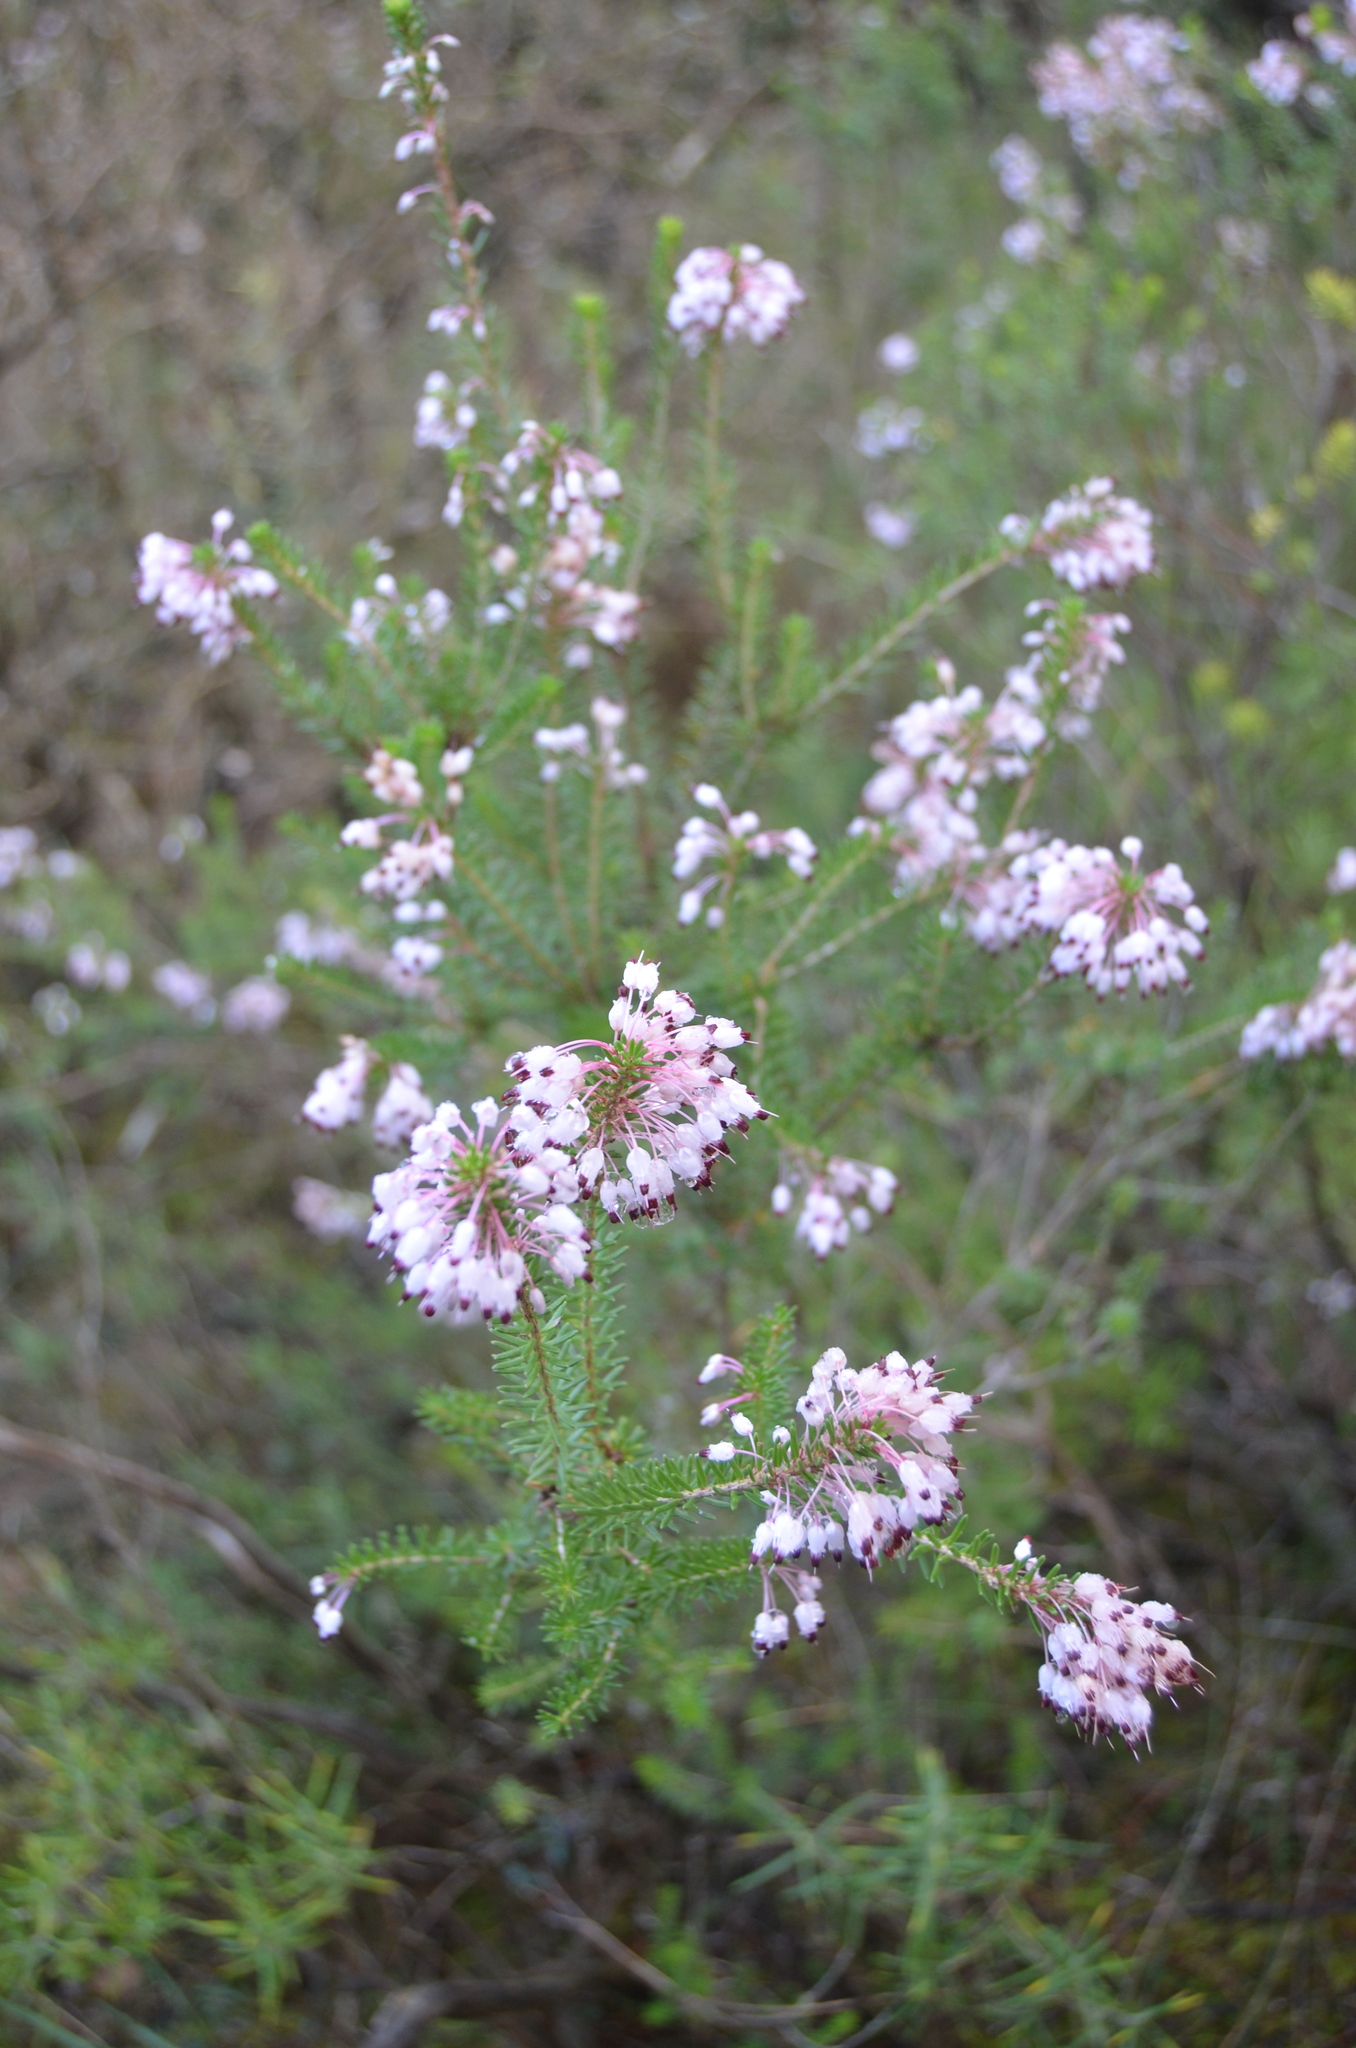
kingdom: Plantae
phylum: Tracheophyta
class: Magnoliopsida
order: Ericales
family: Ericaceae
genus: Erica
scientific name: Erica multiflora
